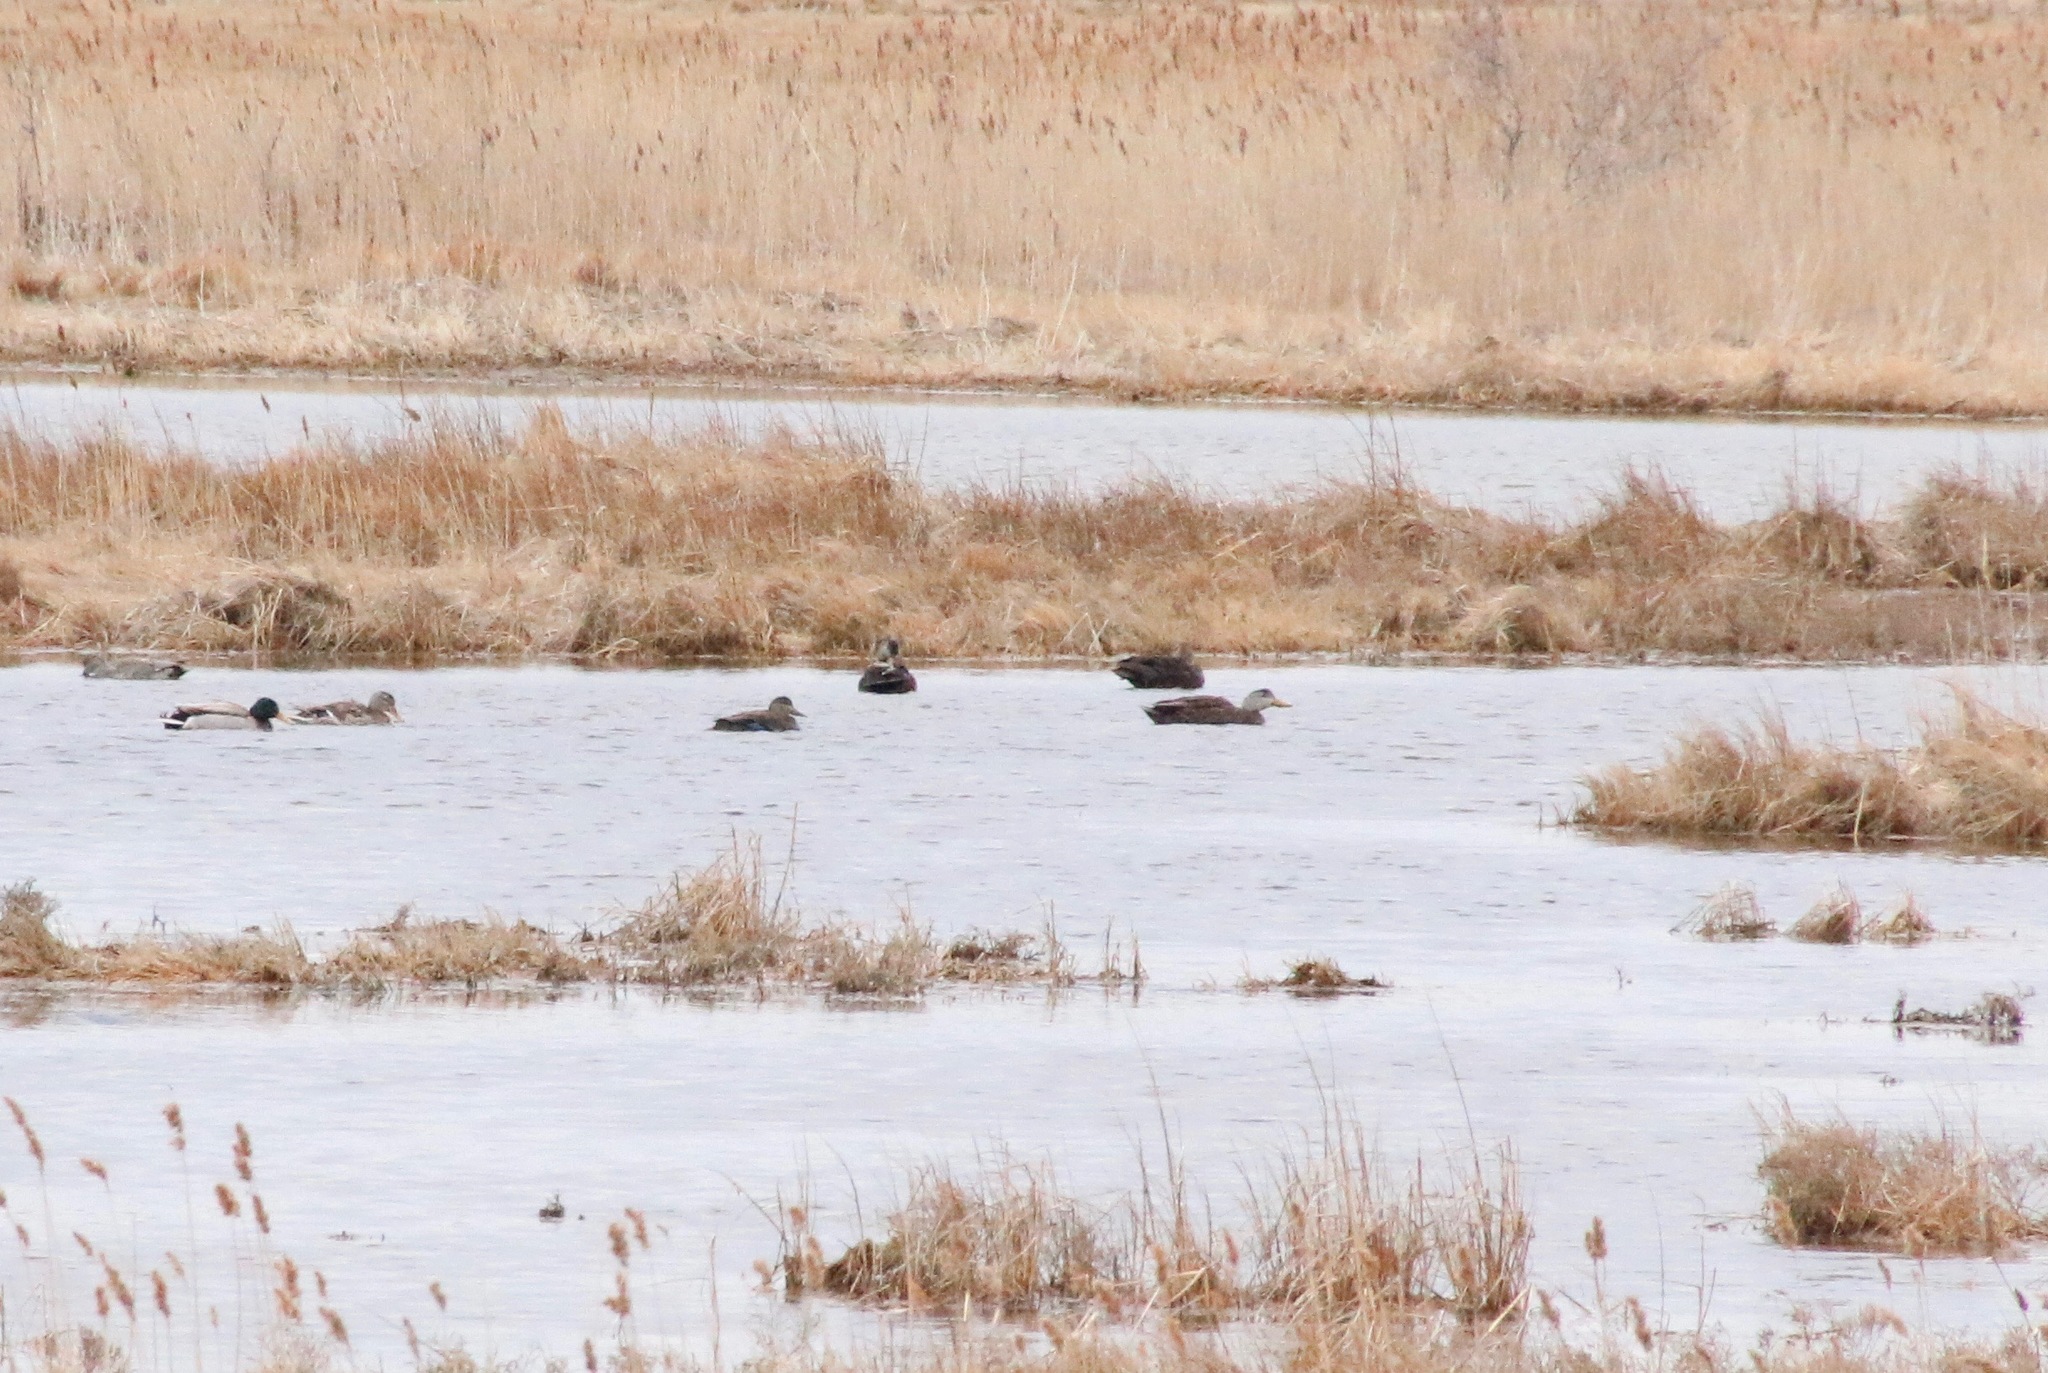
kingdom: Animalia
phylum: Chordata
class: Aves
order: Anseriformes
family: Anatidae
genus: Anas
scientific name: Anas rubripes
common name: American black duck
